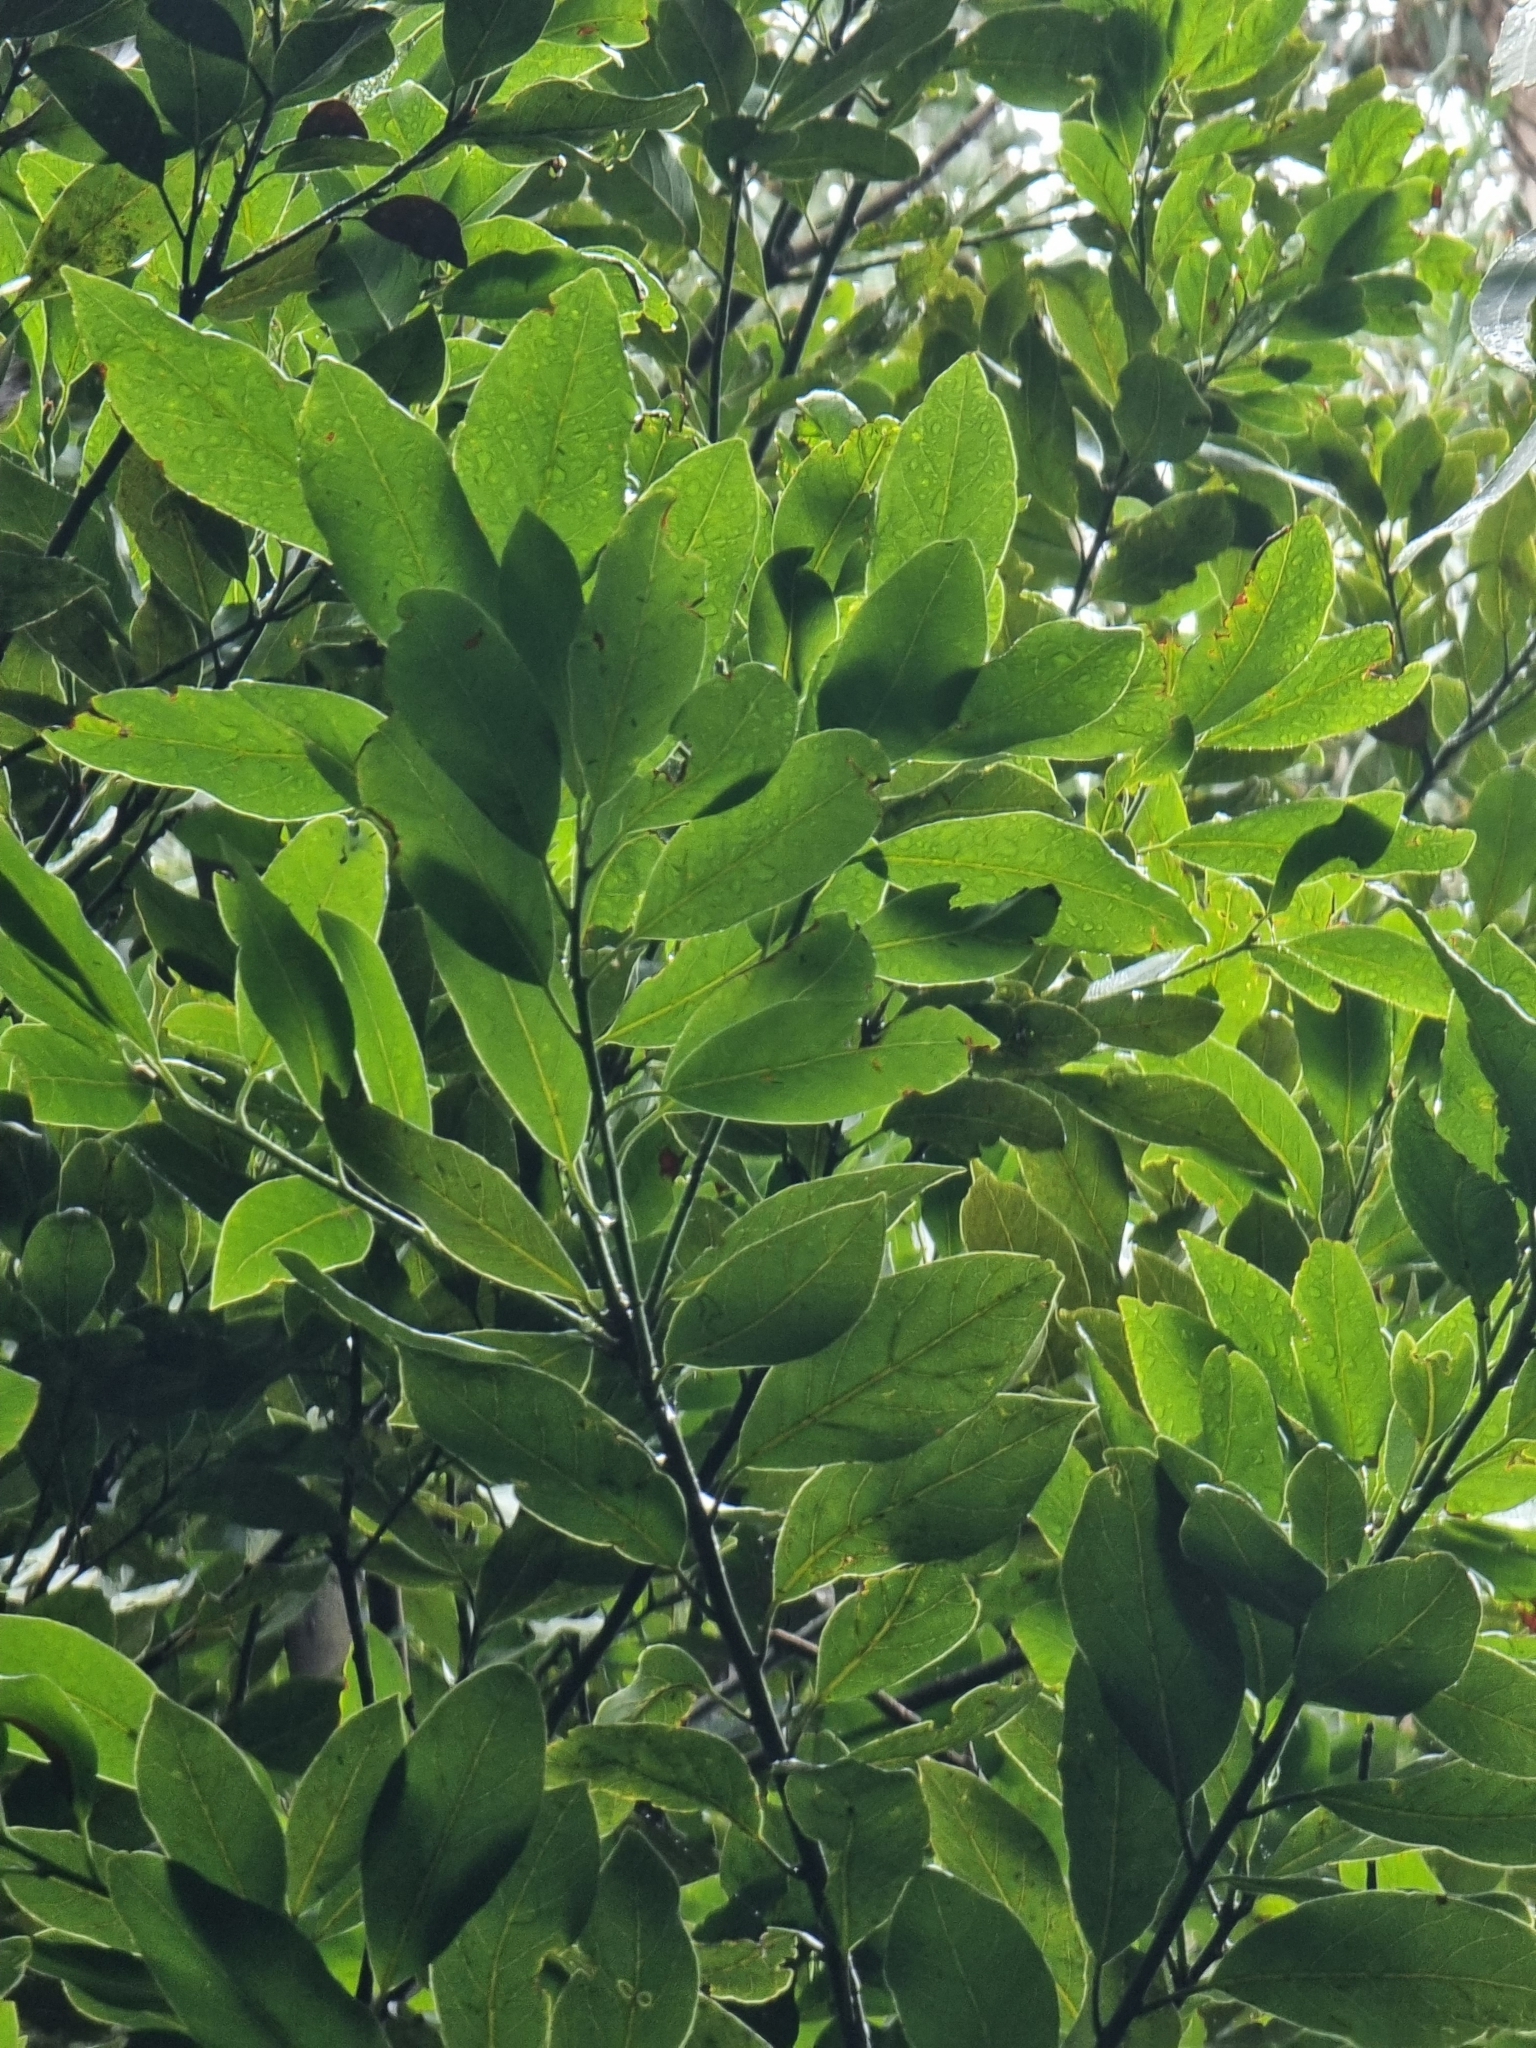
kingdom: Plantae
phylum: Tracheophyta
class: Magnoliopsida
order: Laurales
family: Lauraceae
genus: Laurus
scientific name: Laurus novocanariensis
